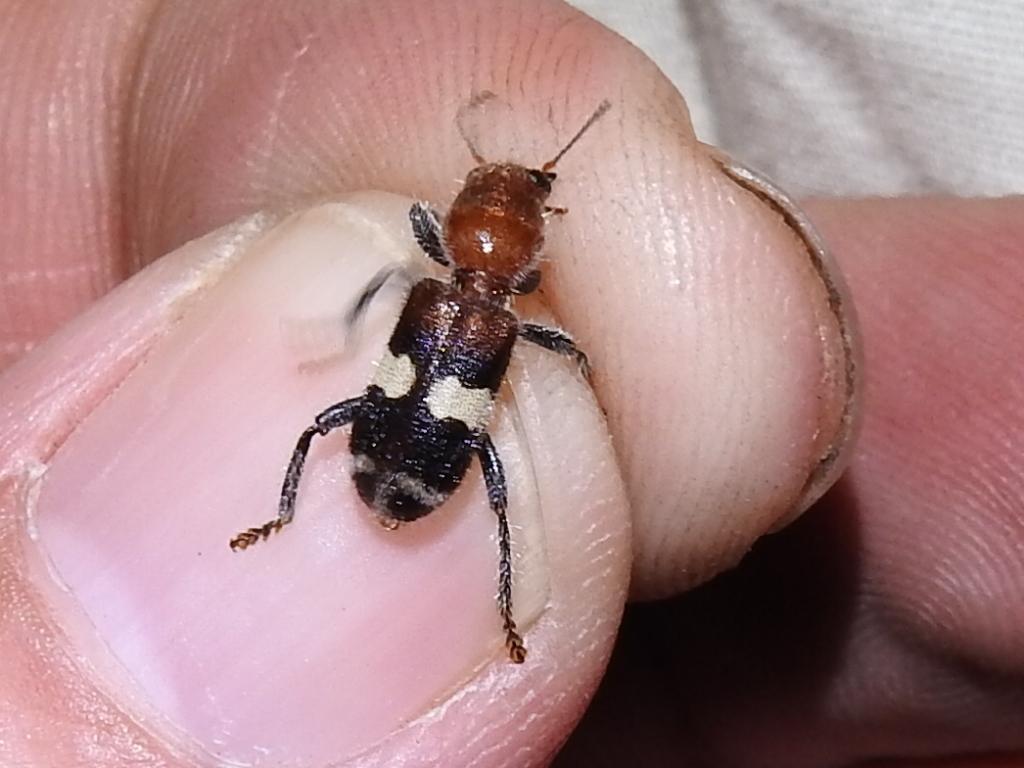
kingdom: Animalia
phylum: Arthropoda
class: Insecta
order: Coleoptera
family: Cleridae
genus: Enoclerus
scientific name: Enoclerus quadrisignatus
